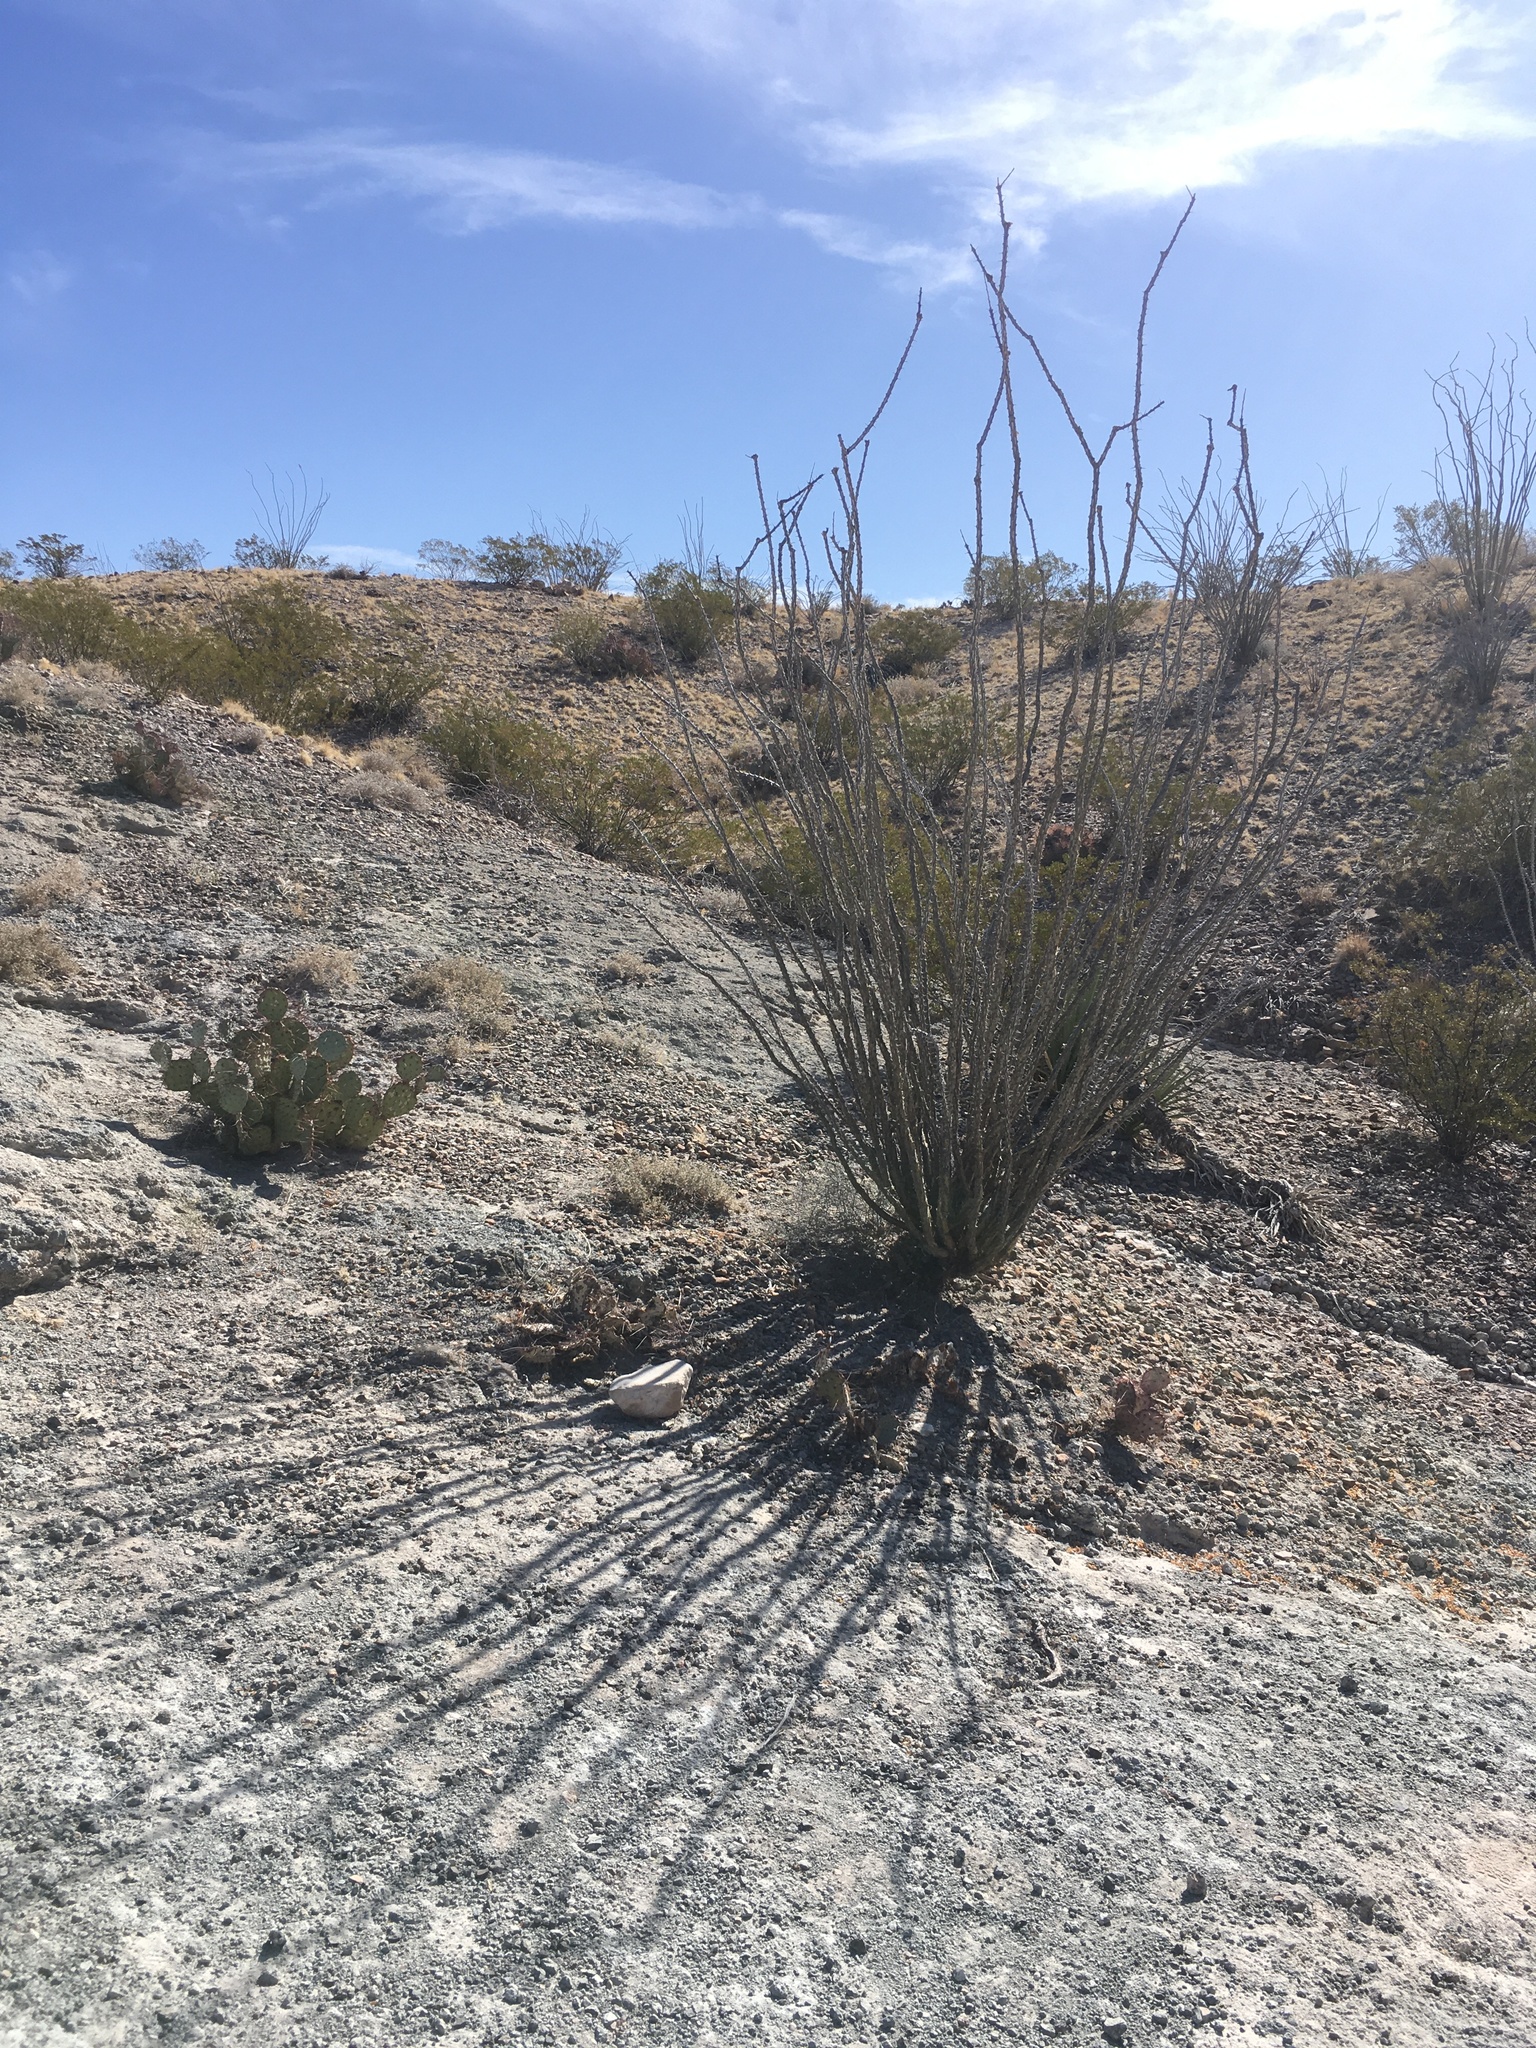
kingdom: Plantae
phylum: Tracheophyta
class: Magnoliopsida
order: Ericales
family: Fouquieriaceae
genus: Fouquieria
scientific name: Fouquieria splendens
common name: Vine-cactus
